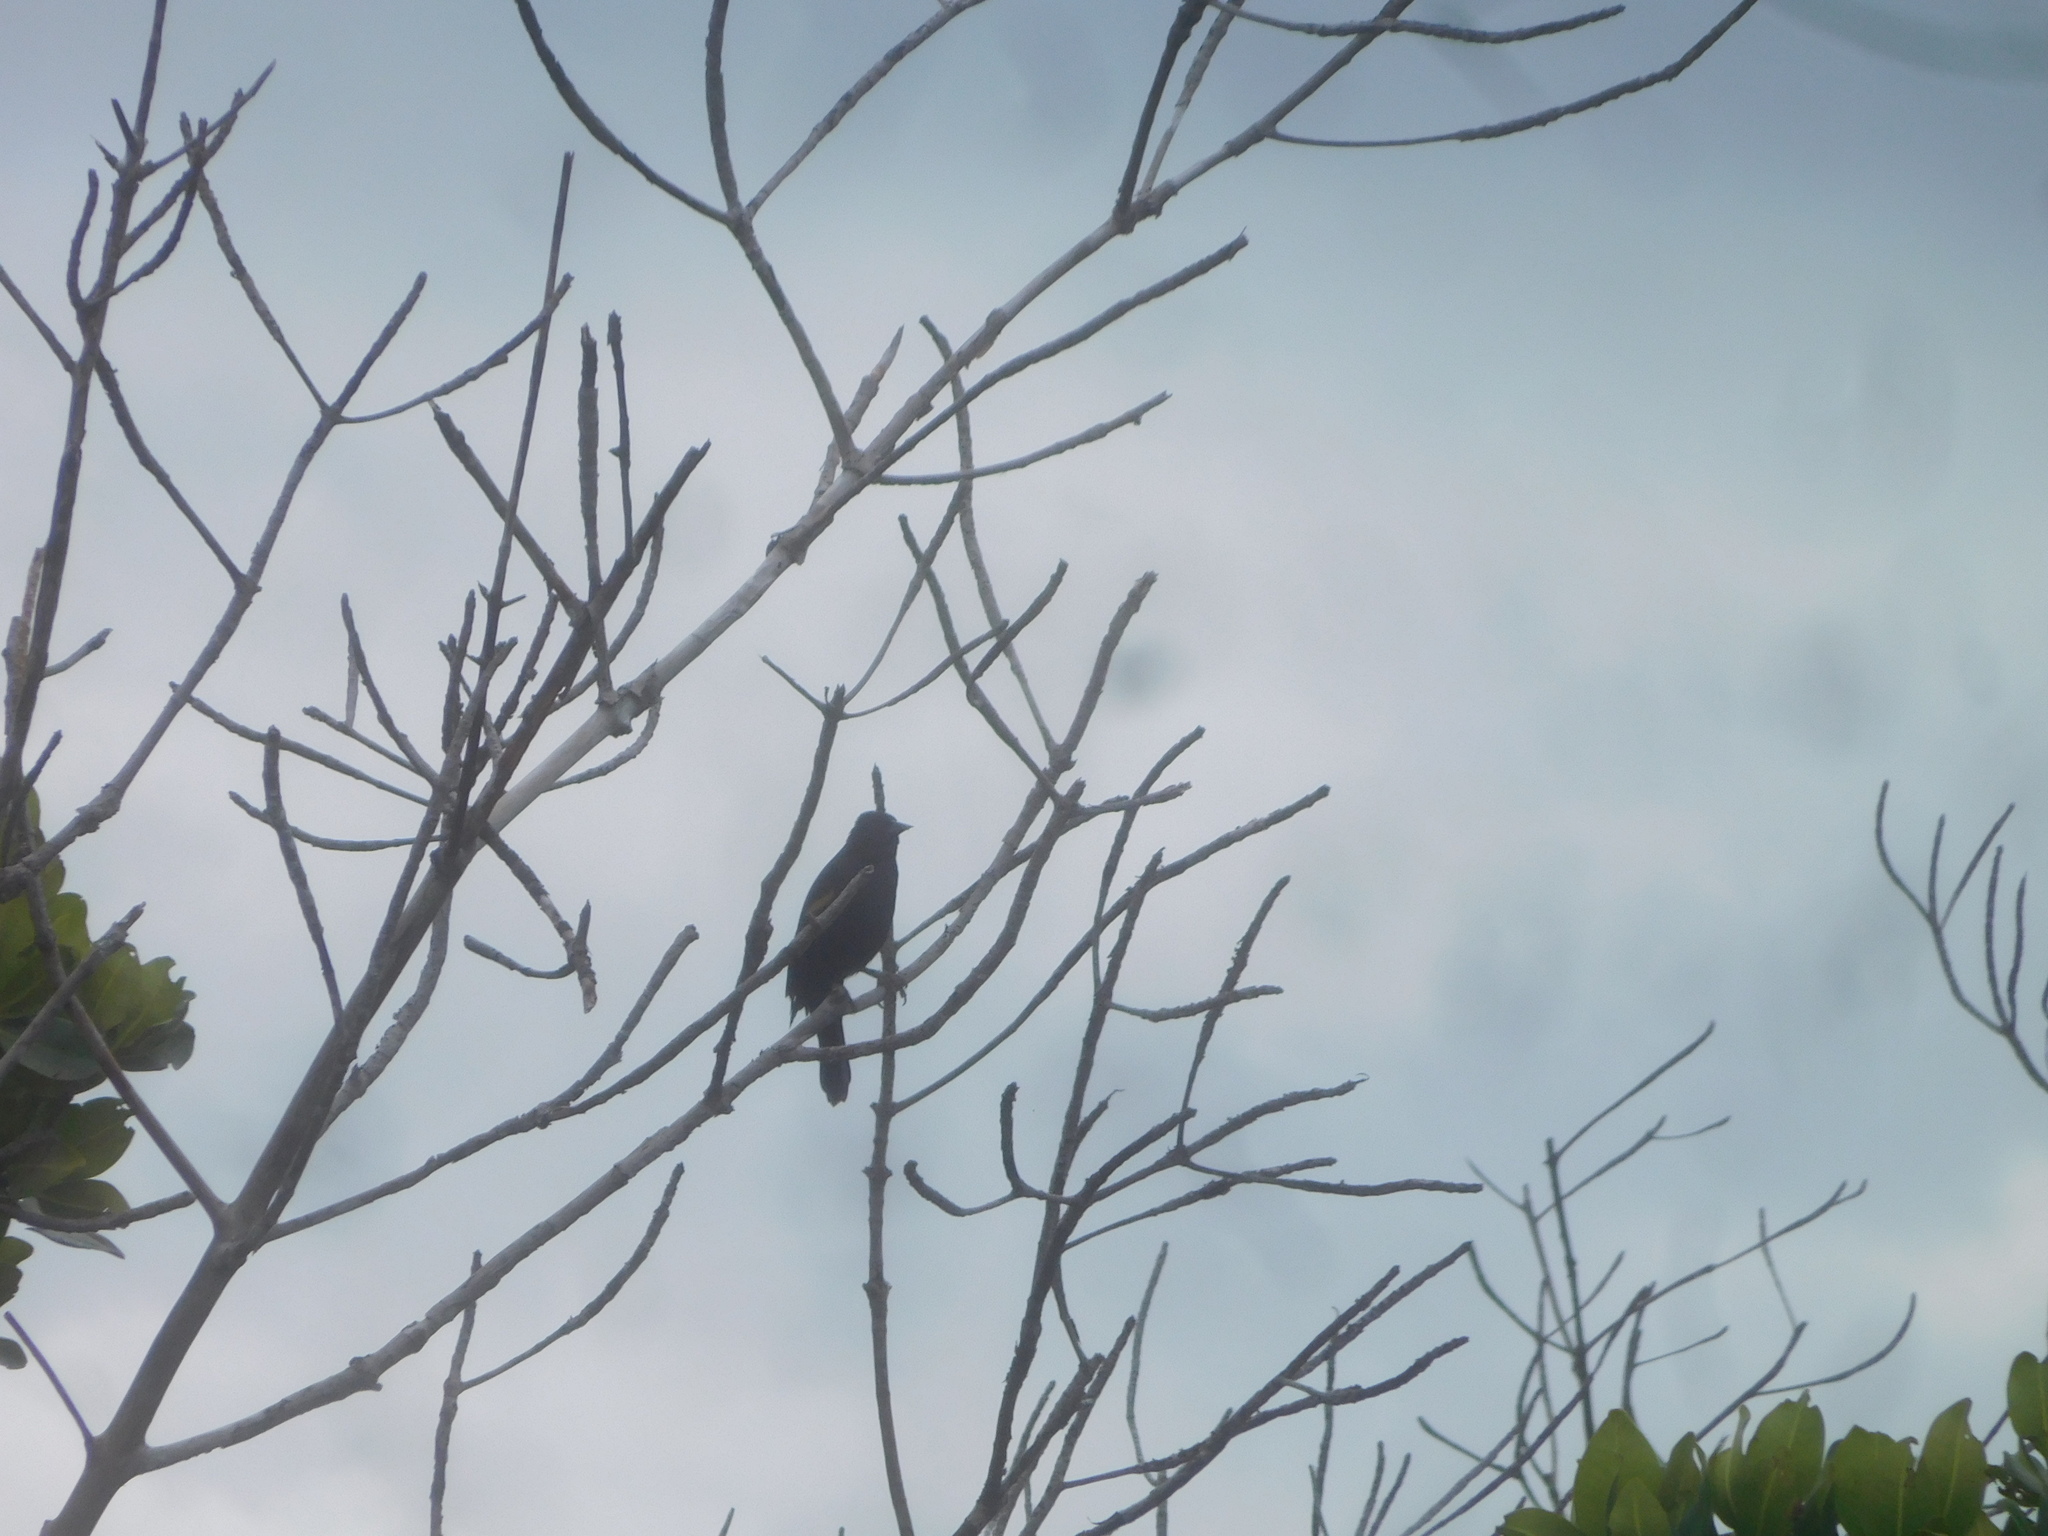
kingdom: Animalia
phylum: Chordata
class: Aves
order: Passeriformes
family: Icteridae
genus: Agelaius
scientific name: Agelaius phoeniceus
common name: Red-winged blackbird
